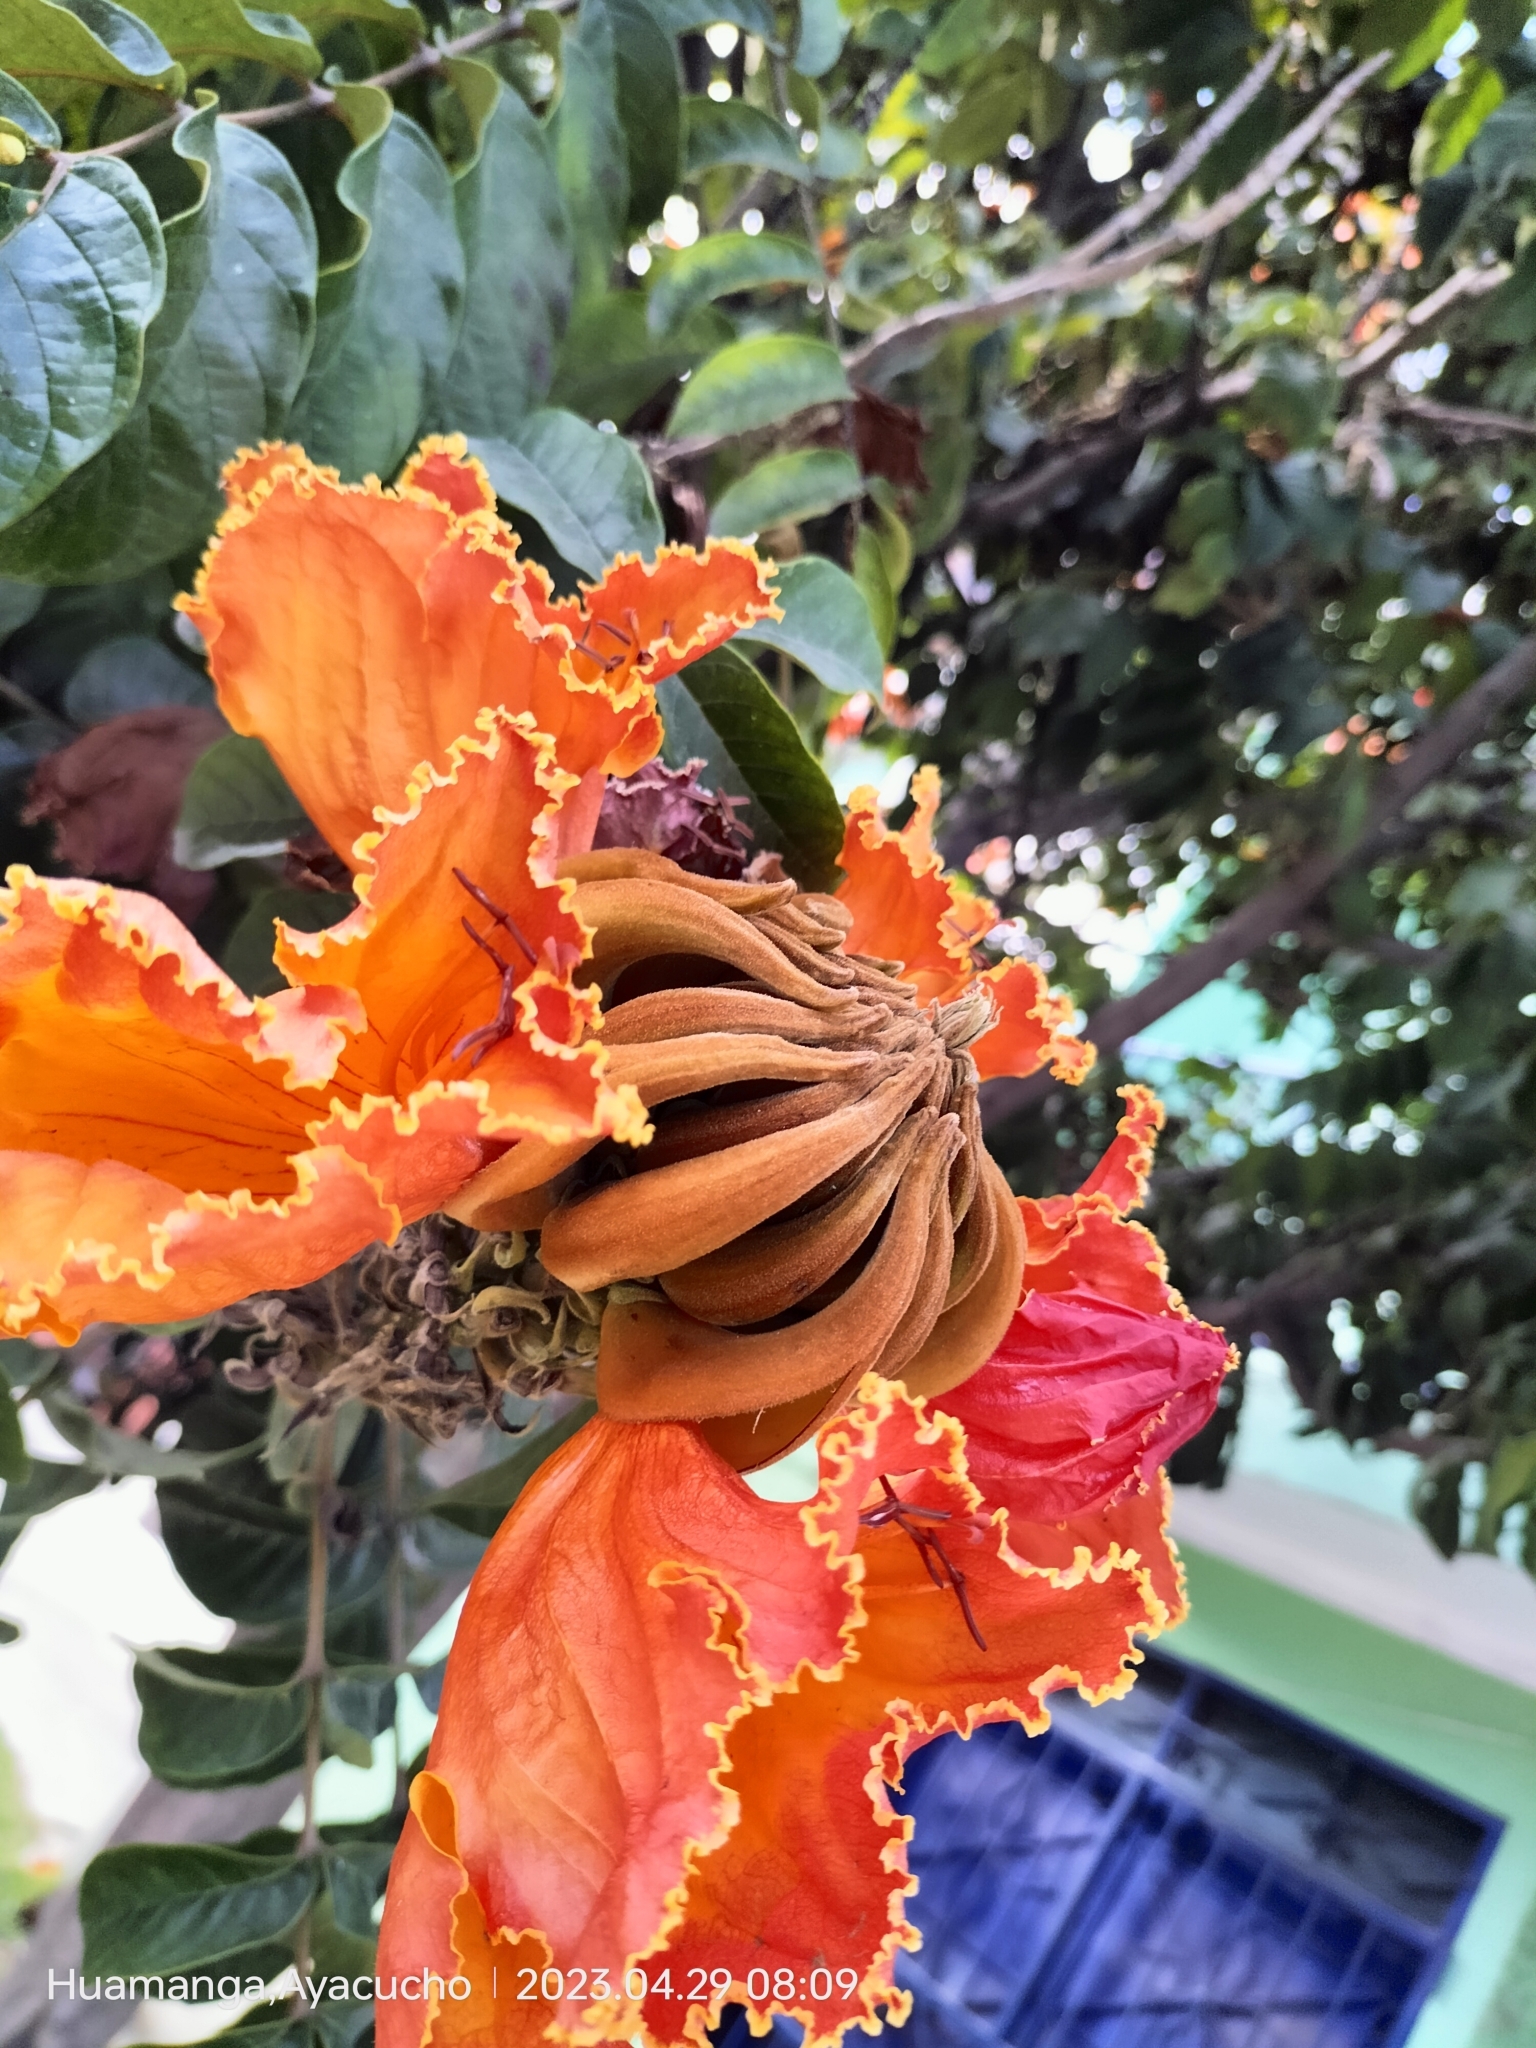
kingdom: Plantae
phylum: Tracheophyta
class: Magnoliopsida
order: Lamiales
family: Bignoniaceae
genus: Spathodea
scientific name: Spathodea campanulata
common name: African tuliptree
